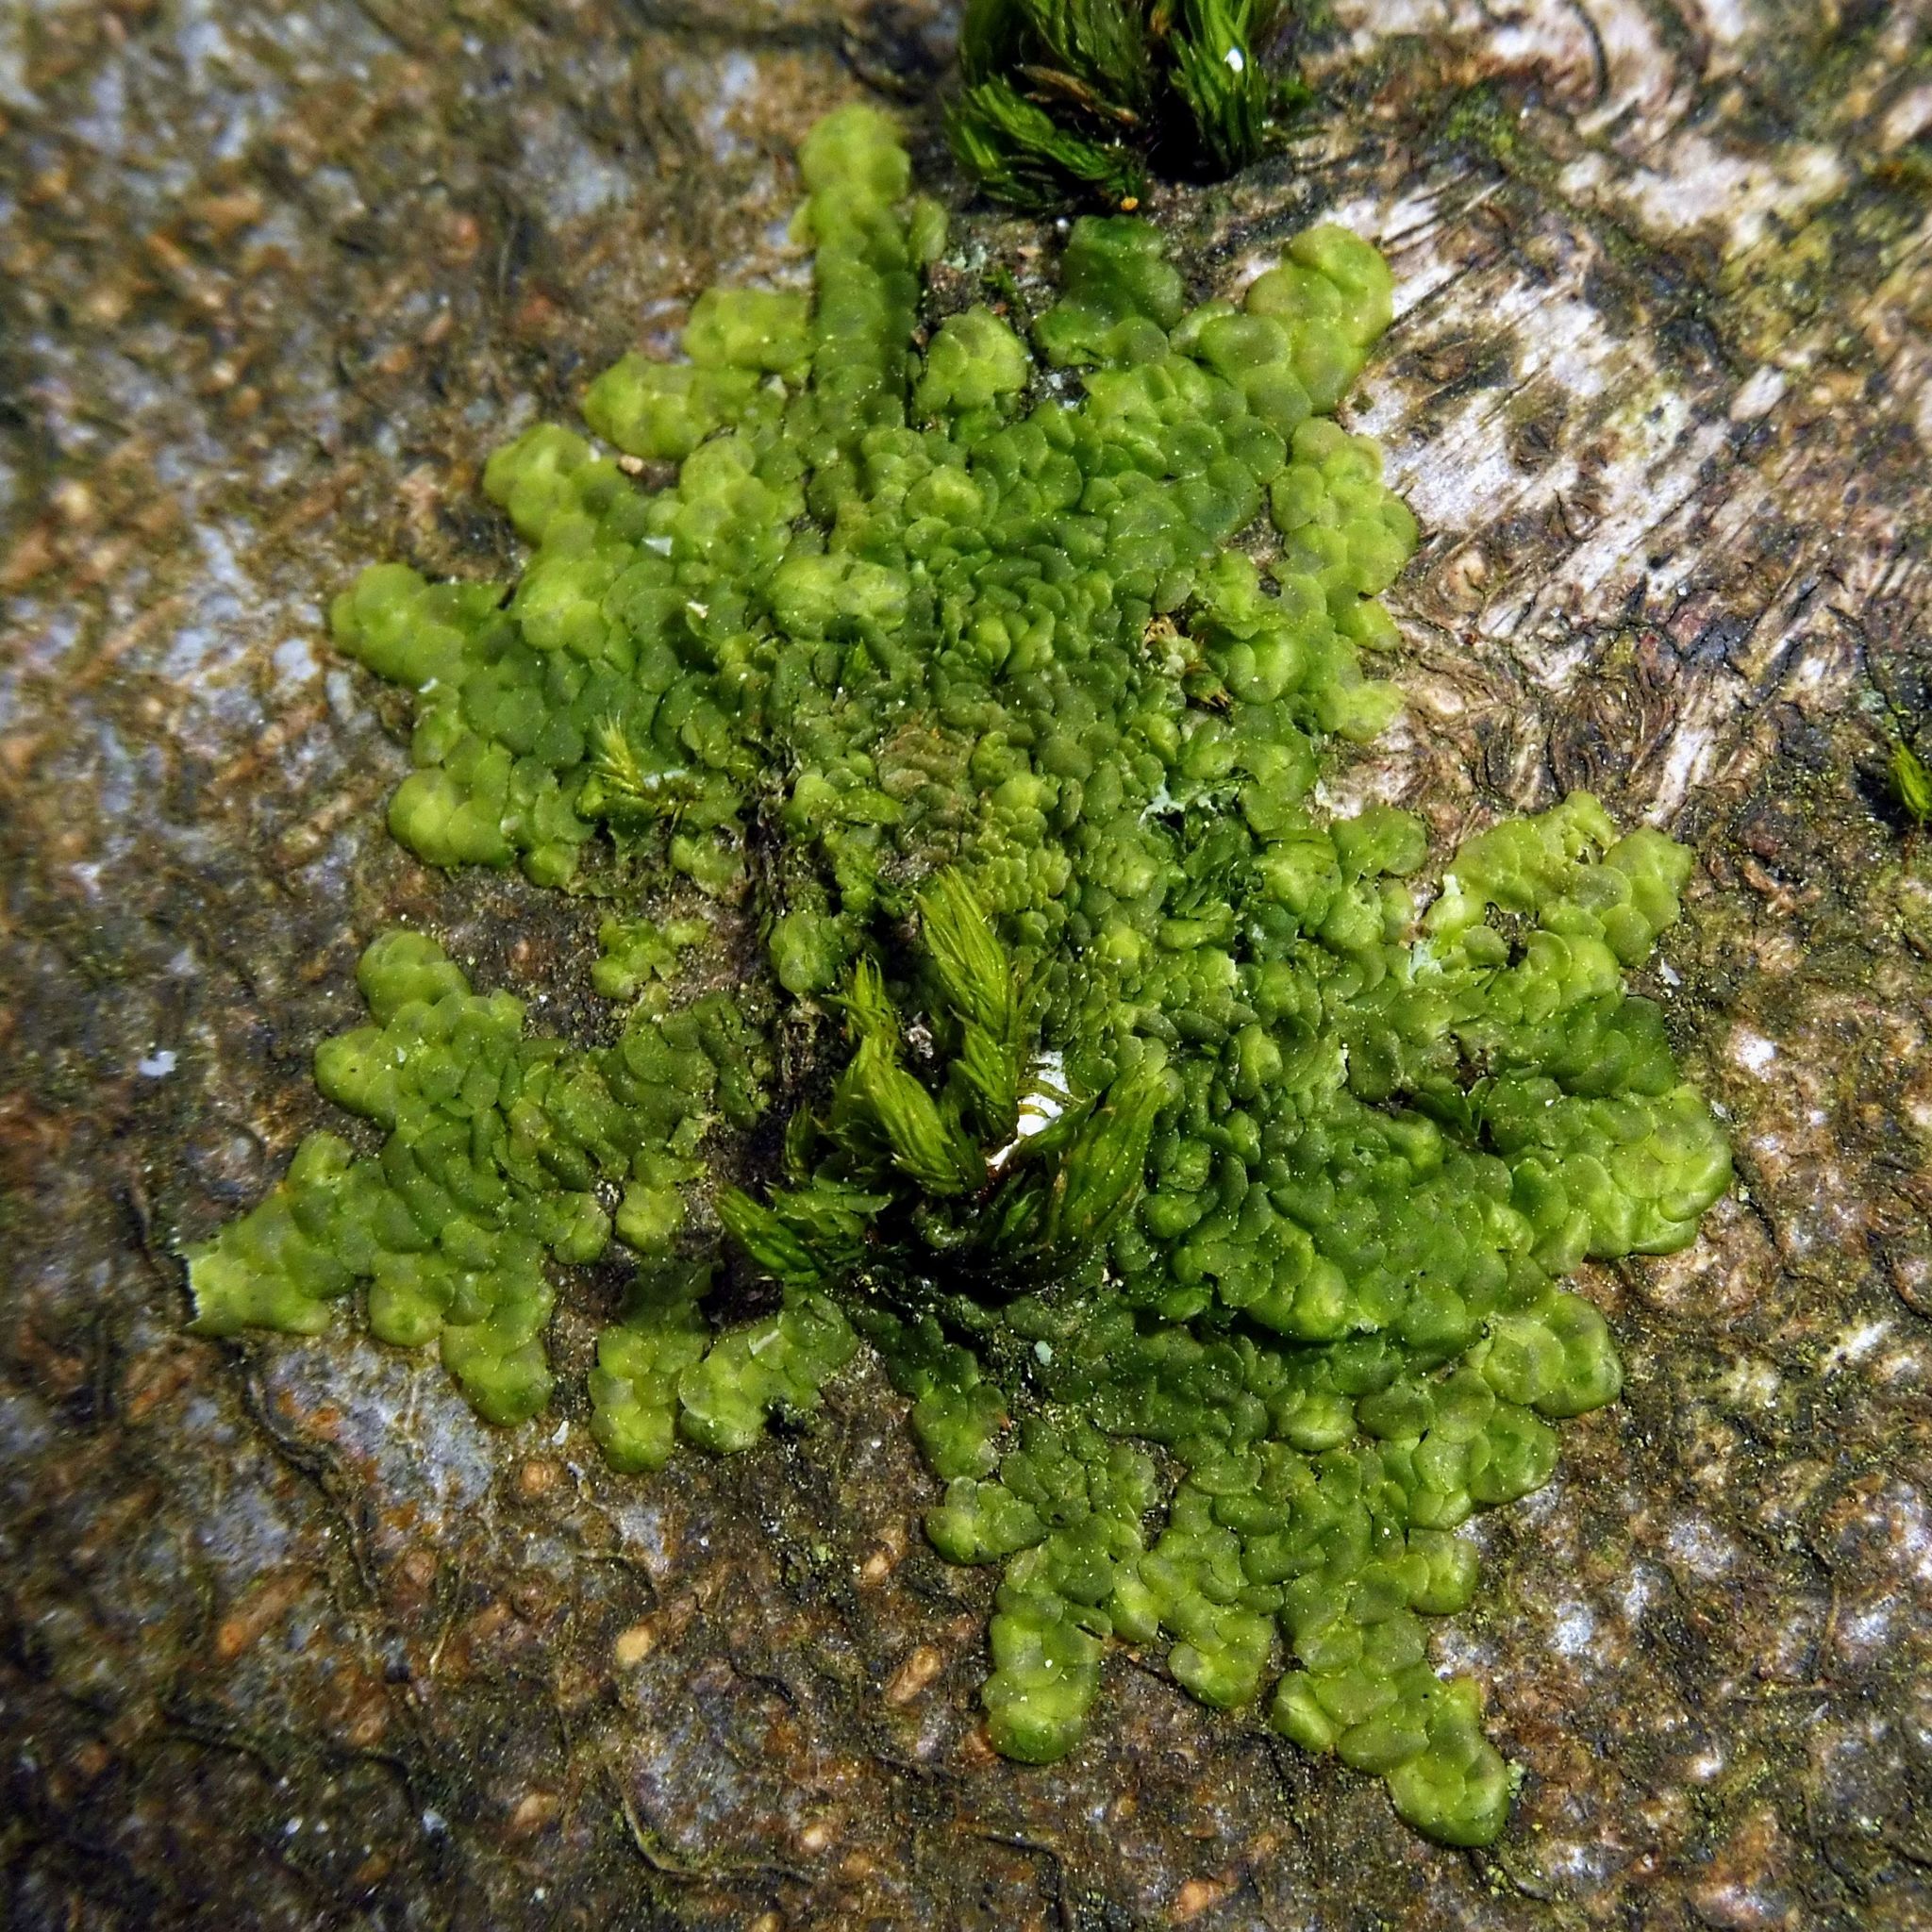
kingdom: Plantae
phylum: Marchantiophyta
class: Jungermanniopsida
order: Porellales
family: Radulaceae
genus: Radula
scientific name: Radula complanata
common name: Flat-leaved scalewort
